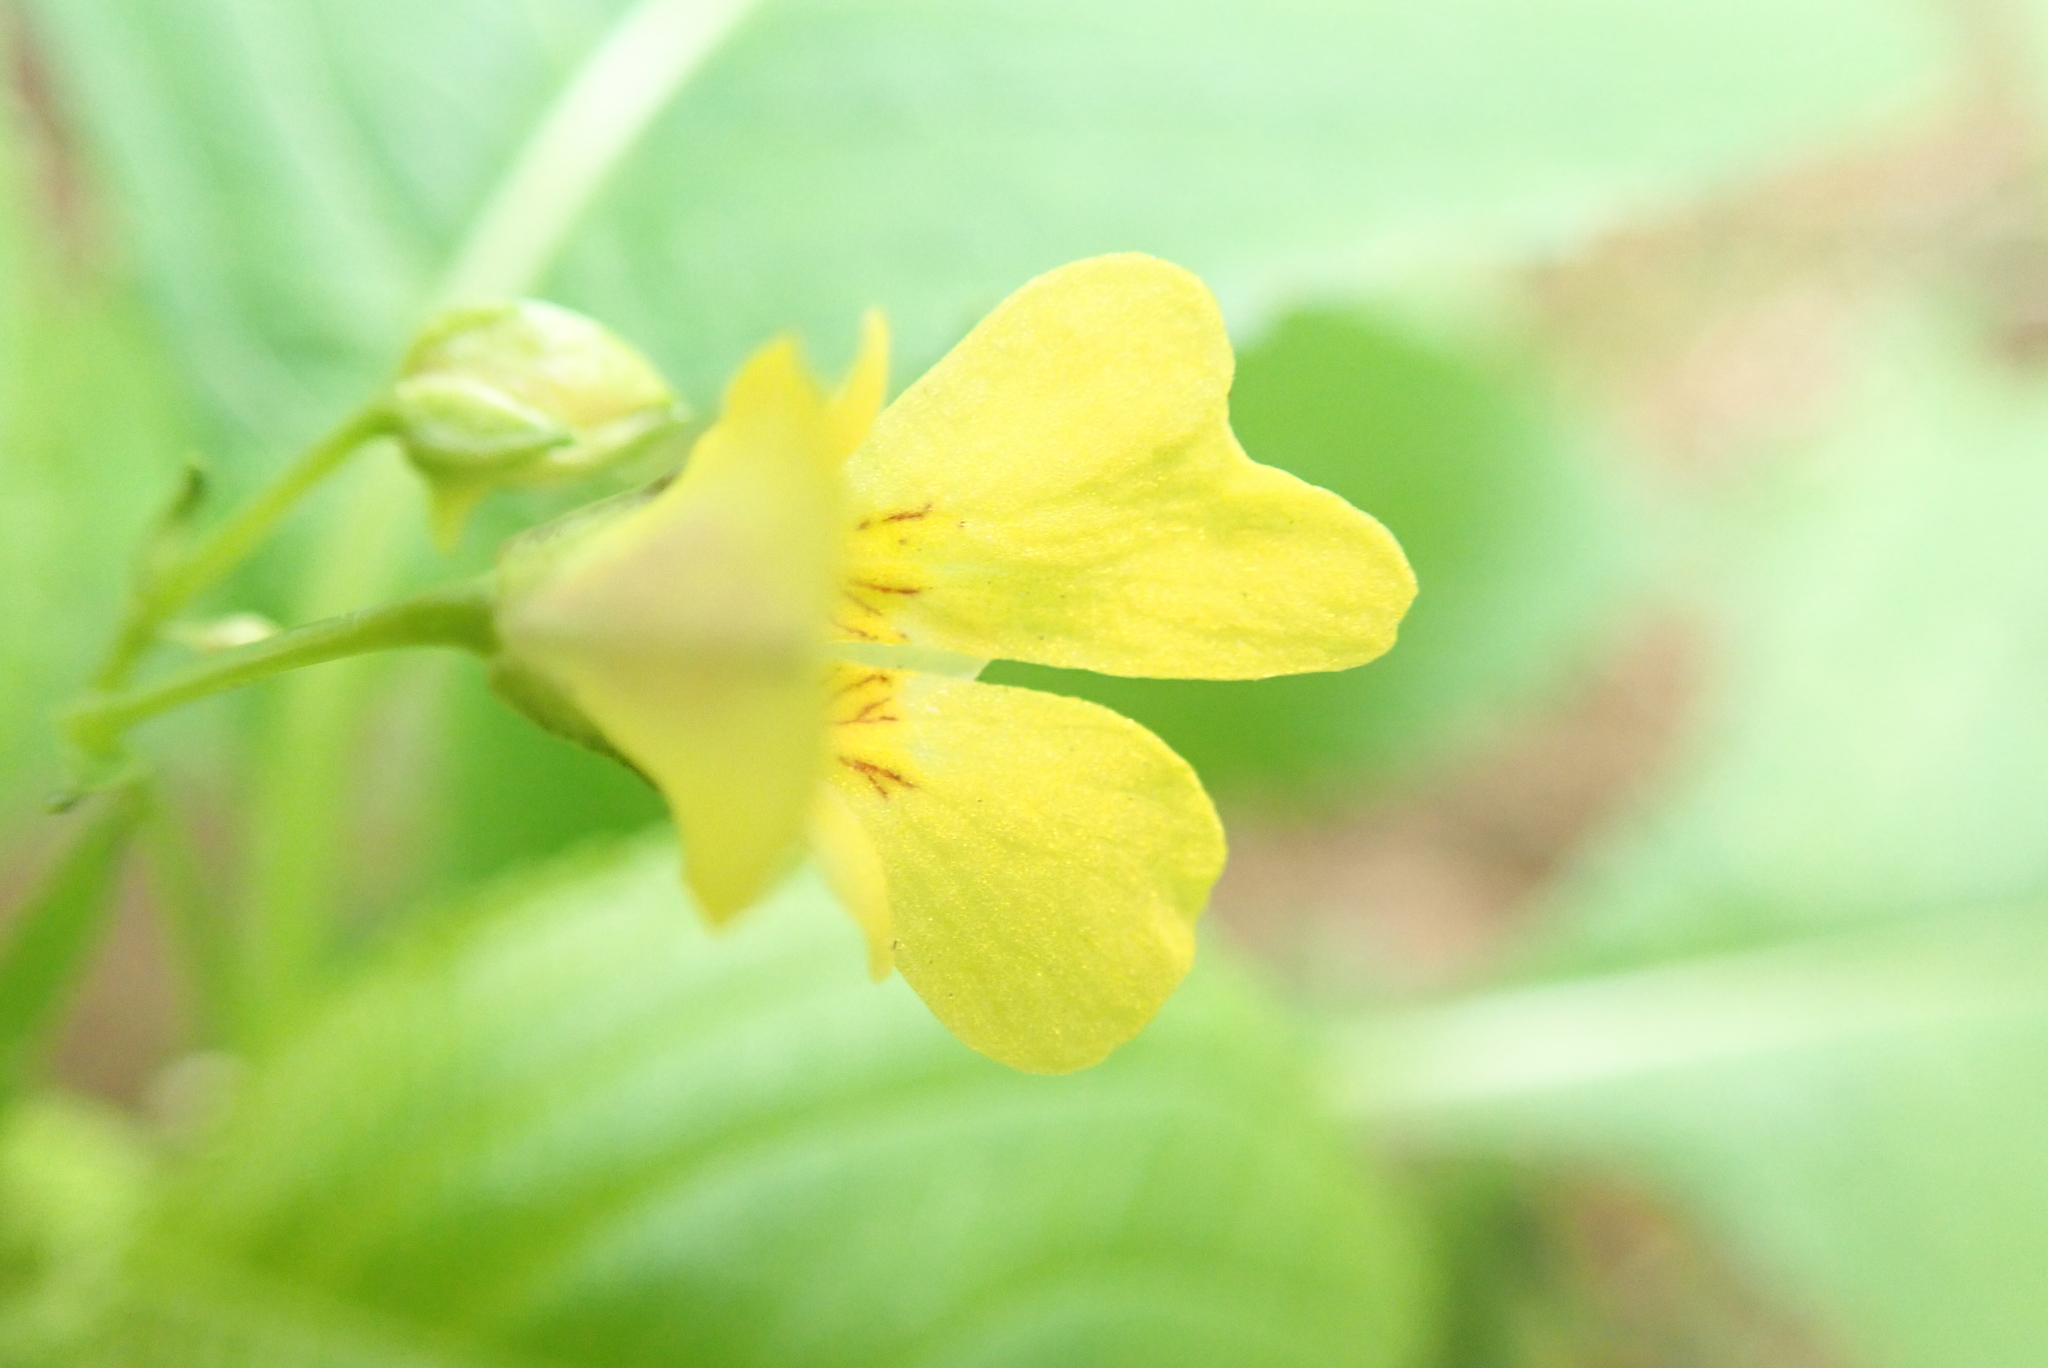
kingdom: Plantae
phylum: Tracheophyta
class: Magnoliopsida
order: Ericales
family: Balsaminaceae
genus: Impatiens
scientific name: Impatiens parviflora
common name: Small balsam
